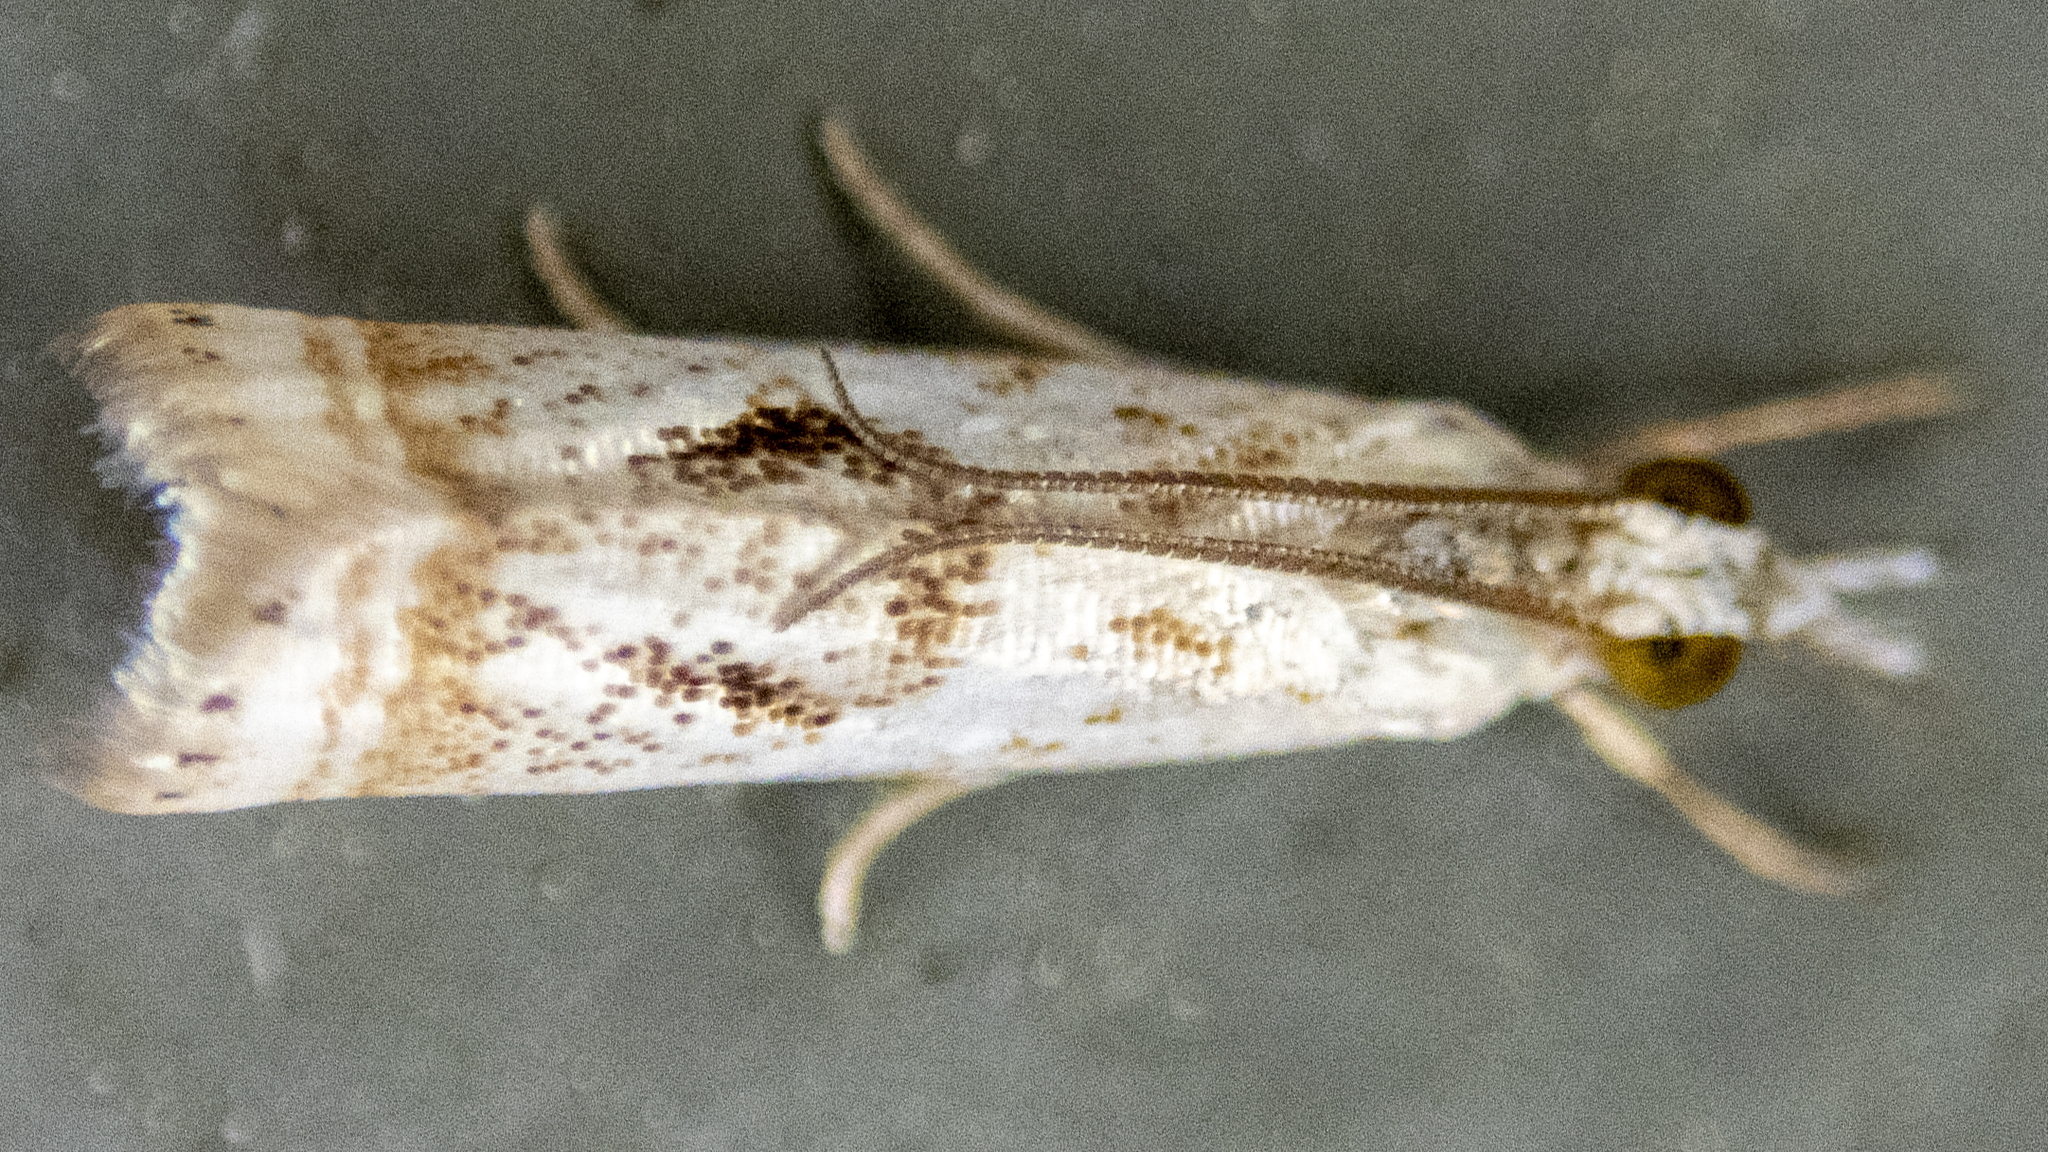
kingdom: Animalia
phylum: Arthropoda
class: Insecta
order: Lepidoptera
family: Crambidae
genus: Microcrambus
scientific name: Microcrambus elegans
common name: Elegant grass-veneer
